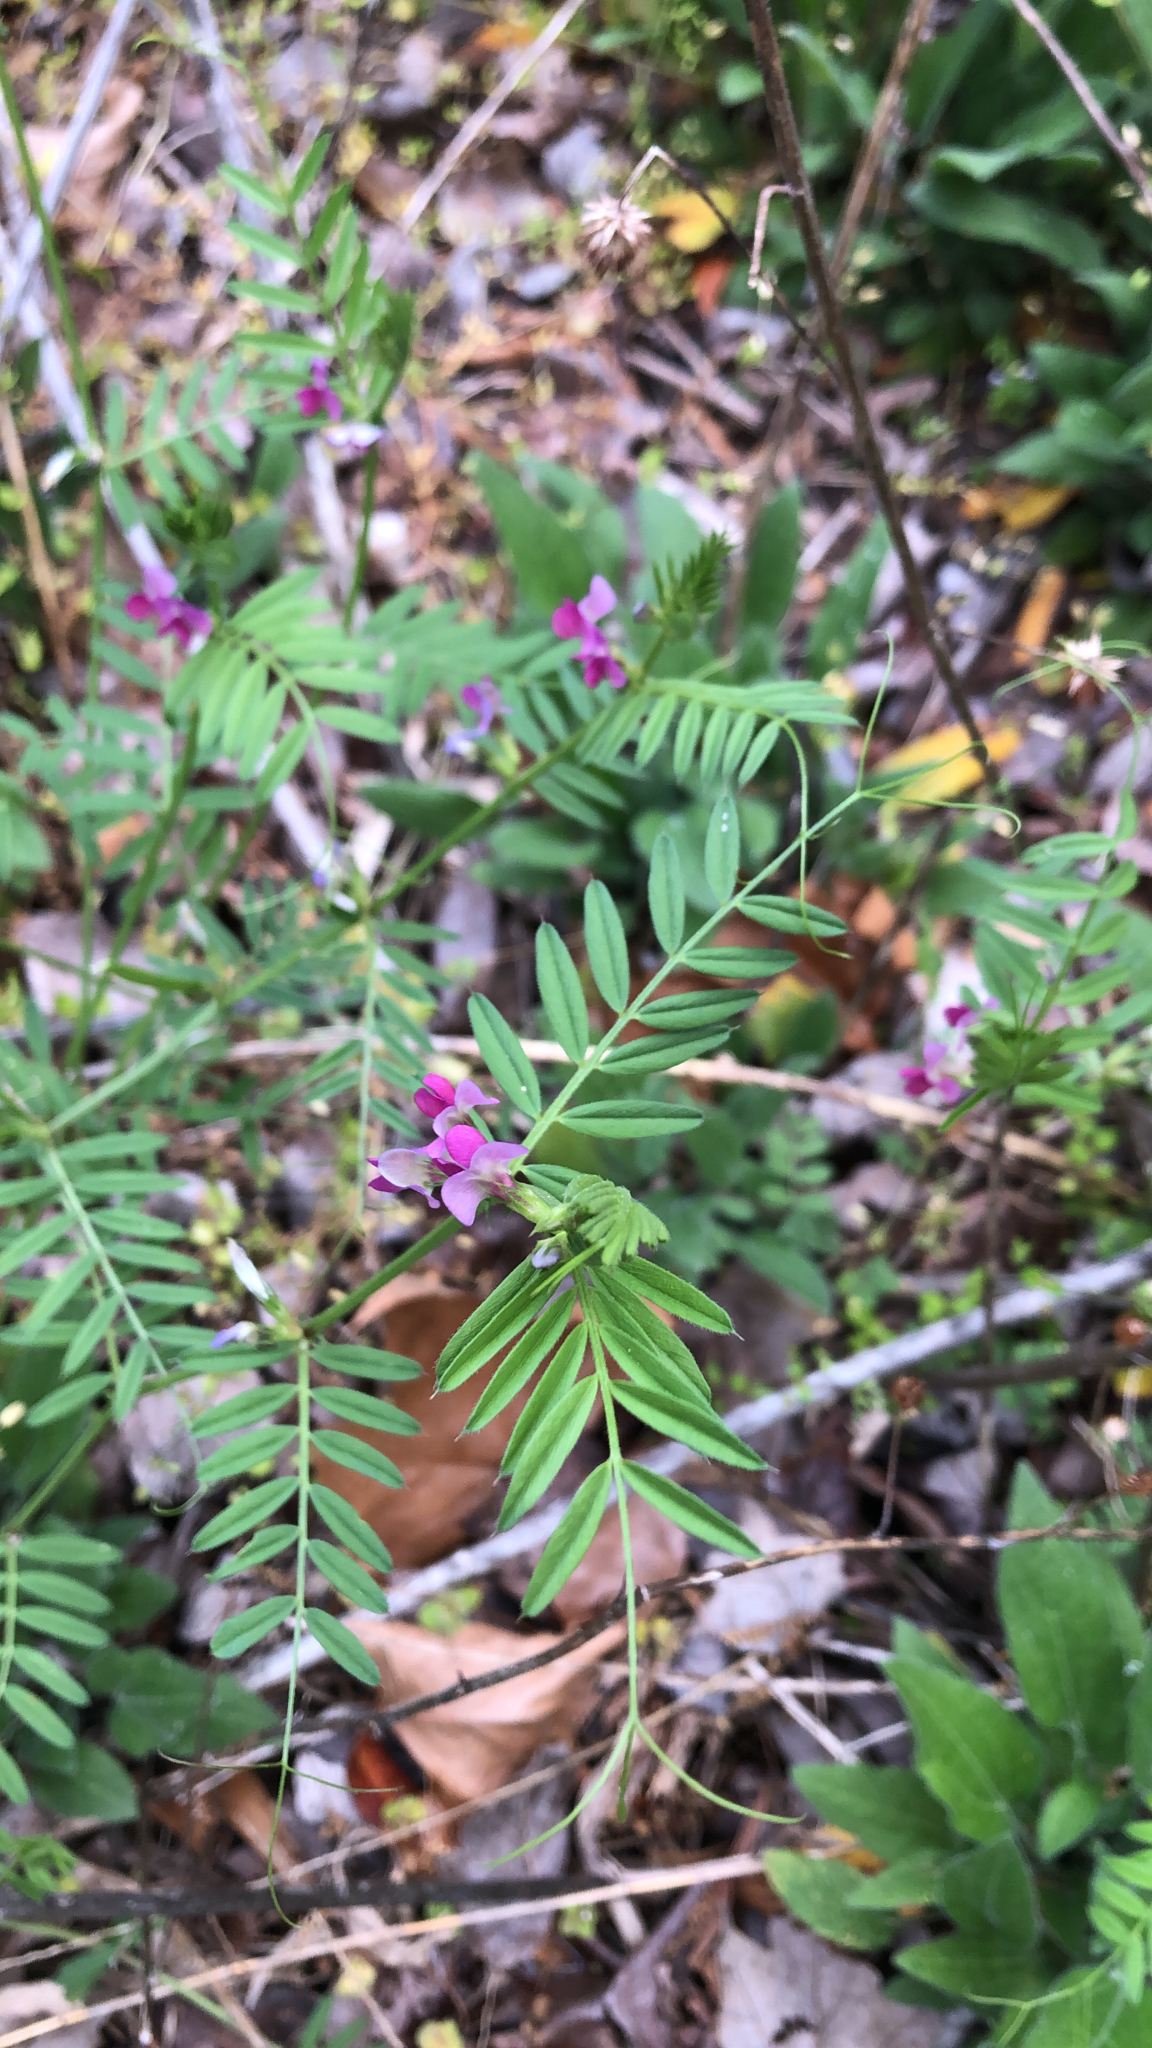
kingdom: Plantae
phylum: Tracheophyta
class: Magnoliopsida
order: Fabales
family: Fabaceae
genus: Vicia
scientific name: Vicia sativa
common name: Garden vetch
